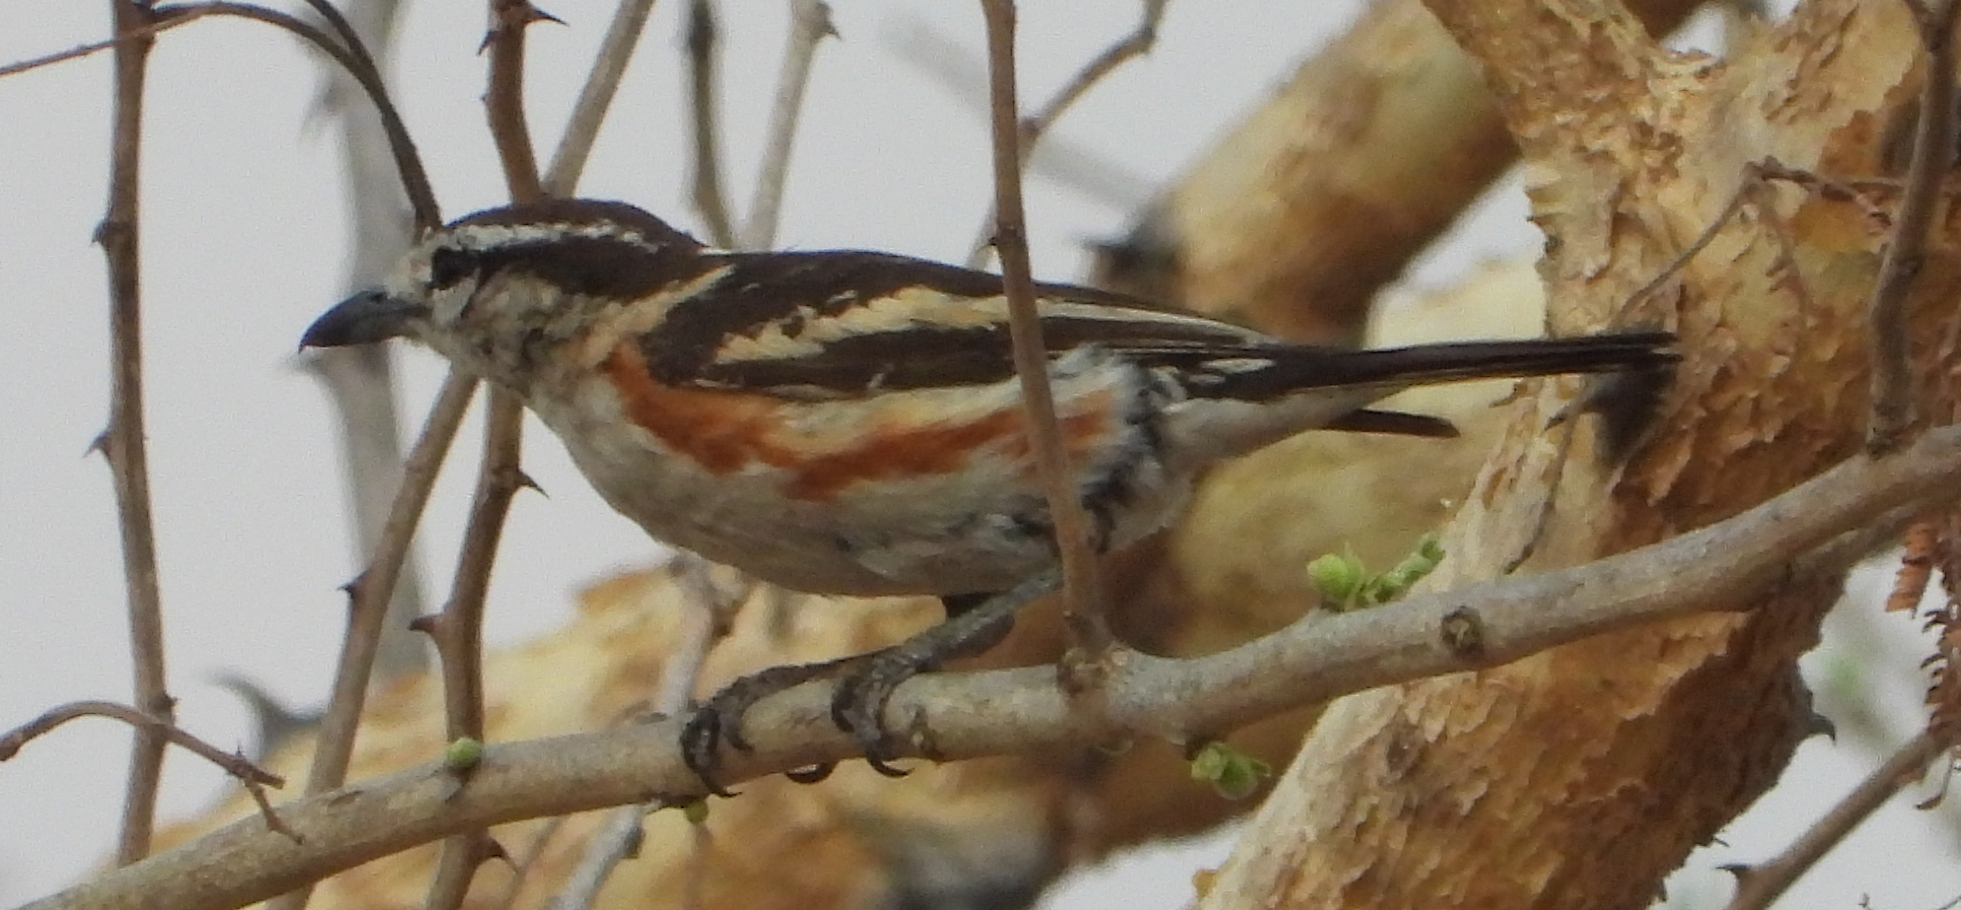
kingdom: Animalia
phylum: Chordata
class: Aves
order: Passeriformes
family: Malaconotidae
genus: Nilaus
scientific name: Nilaus afer
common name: Brubru
